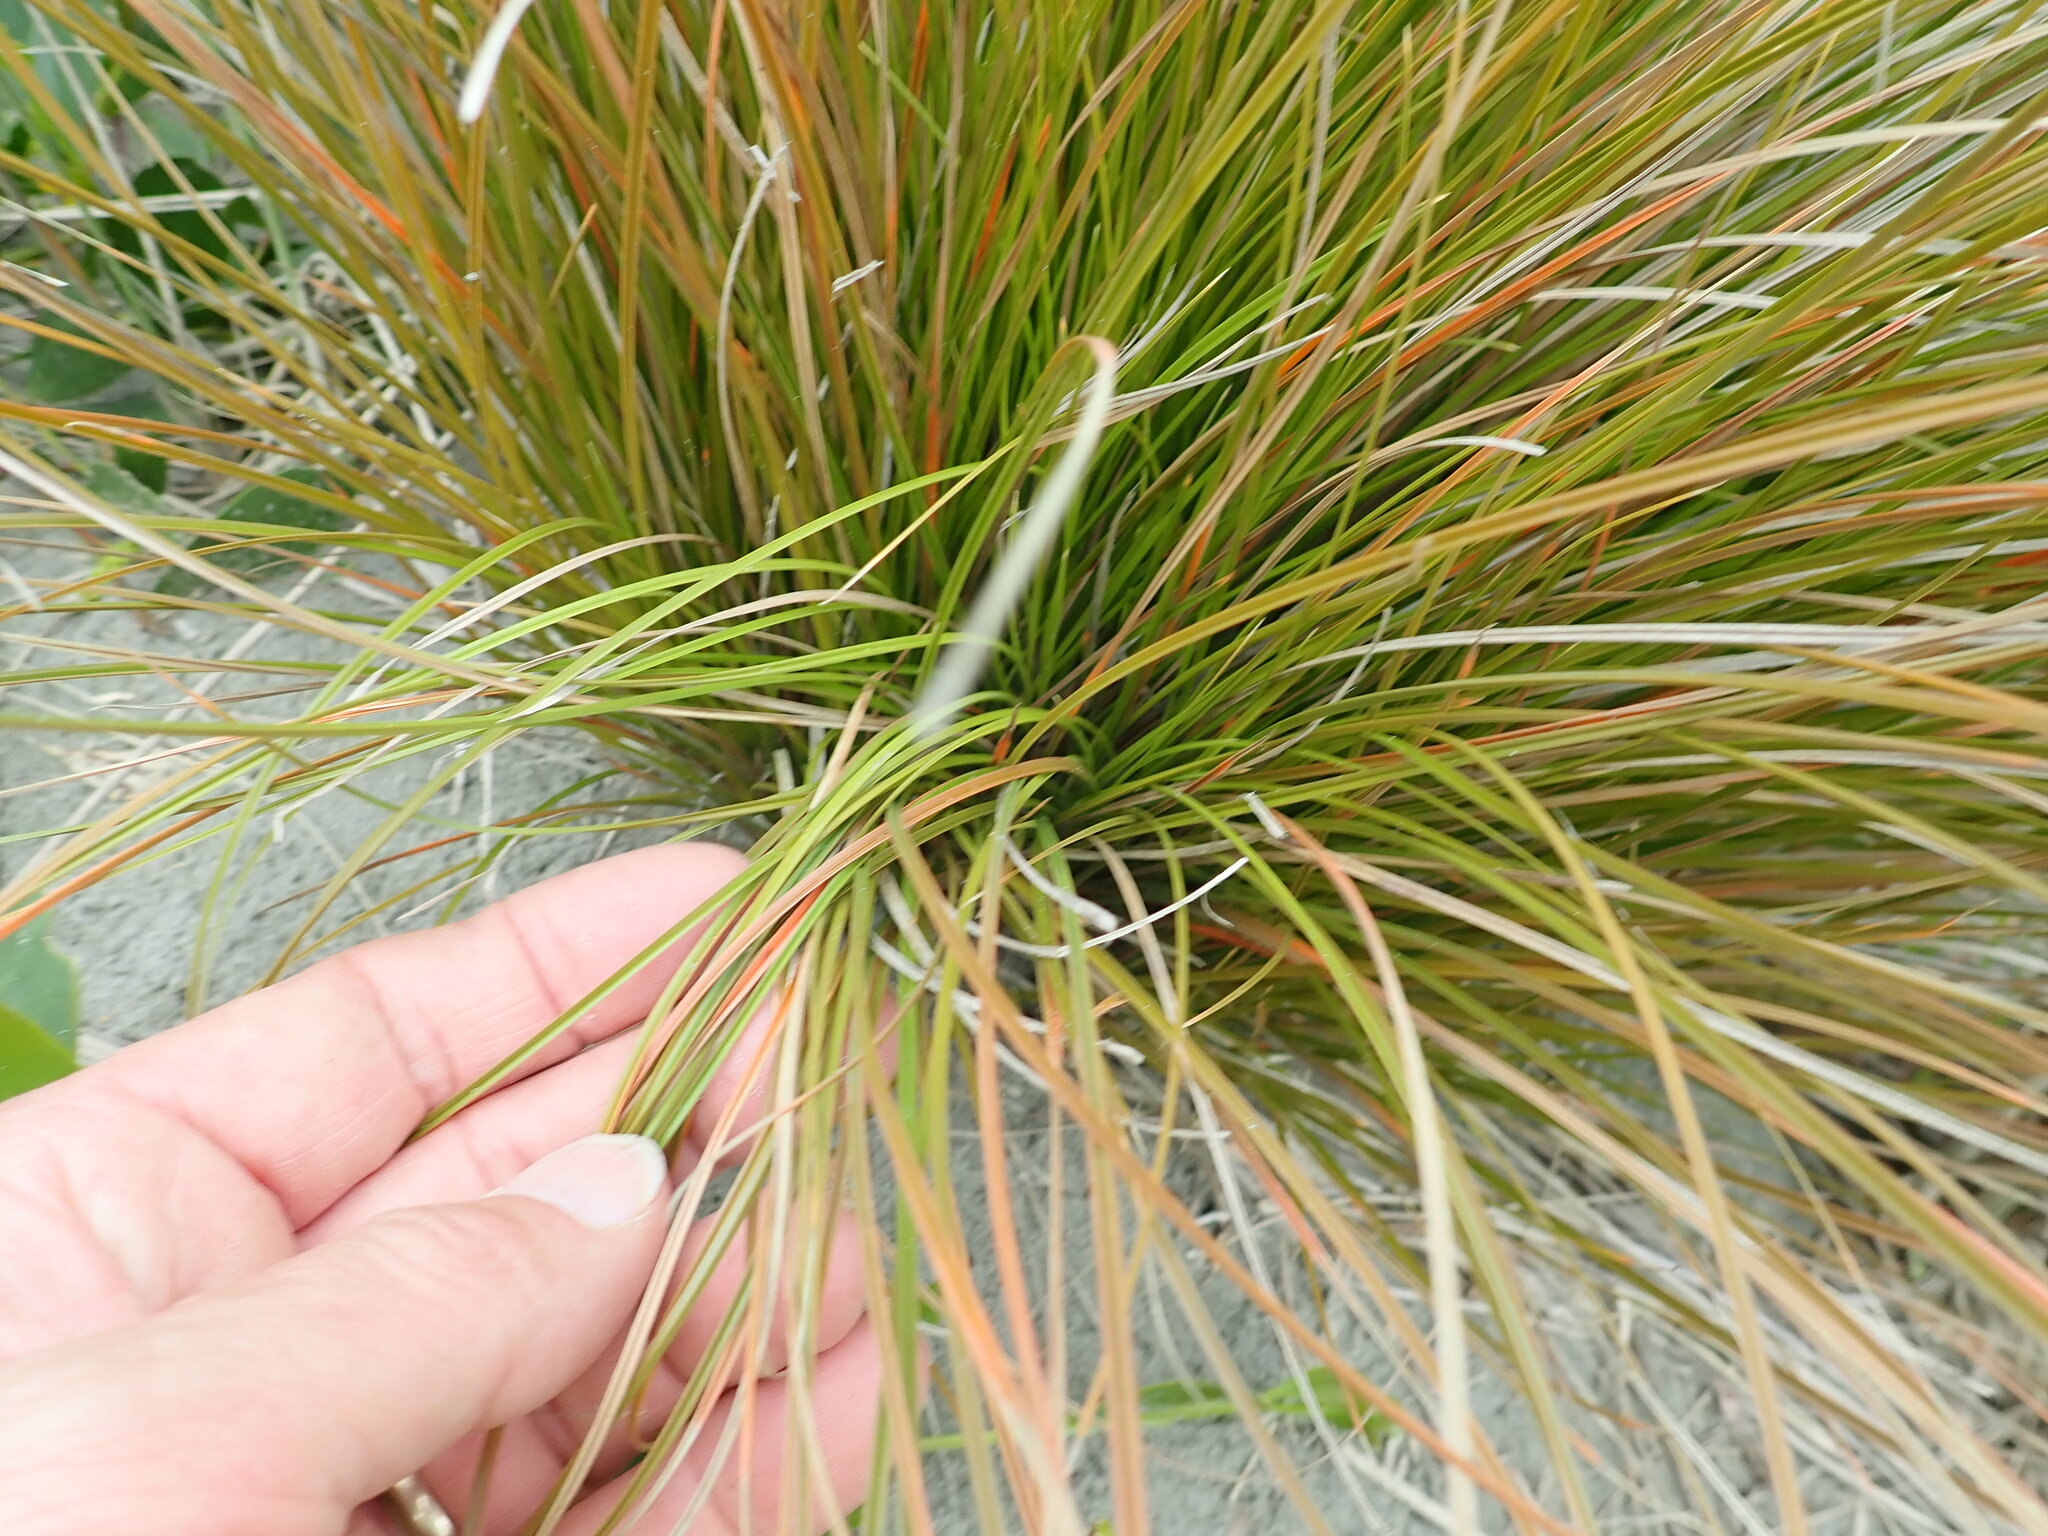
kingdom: Plantae
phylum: Tracheophyta
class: Liliopsida
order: Poales
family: Cyperaceae
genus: Carex
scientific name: Carex testacea
